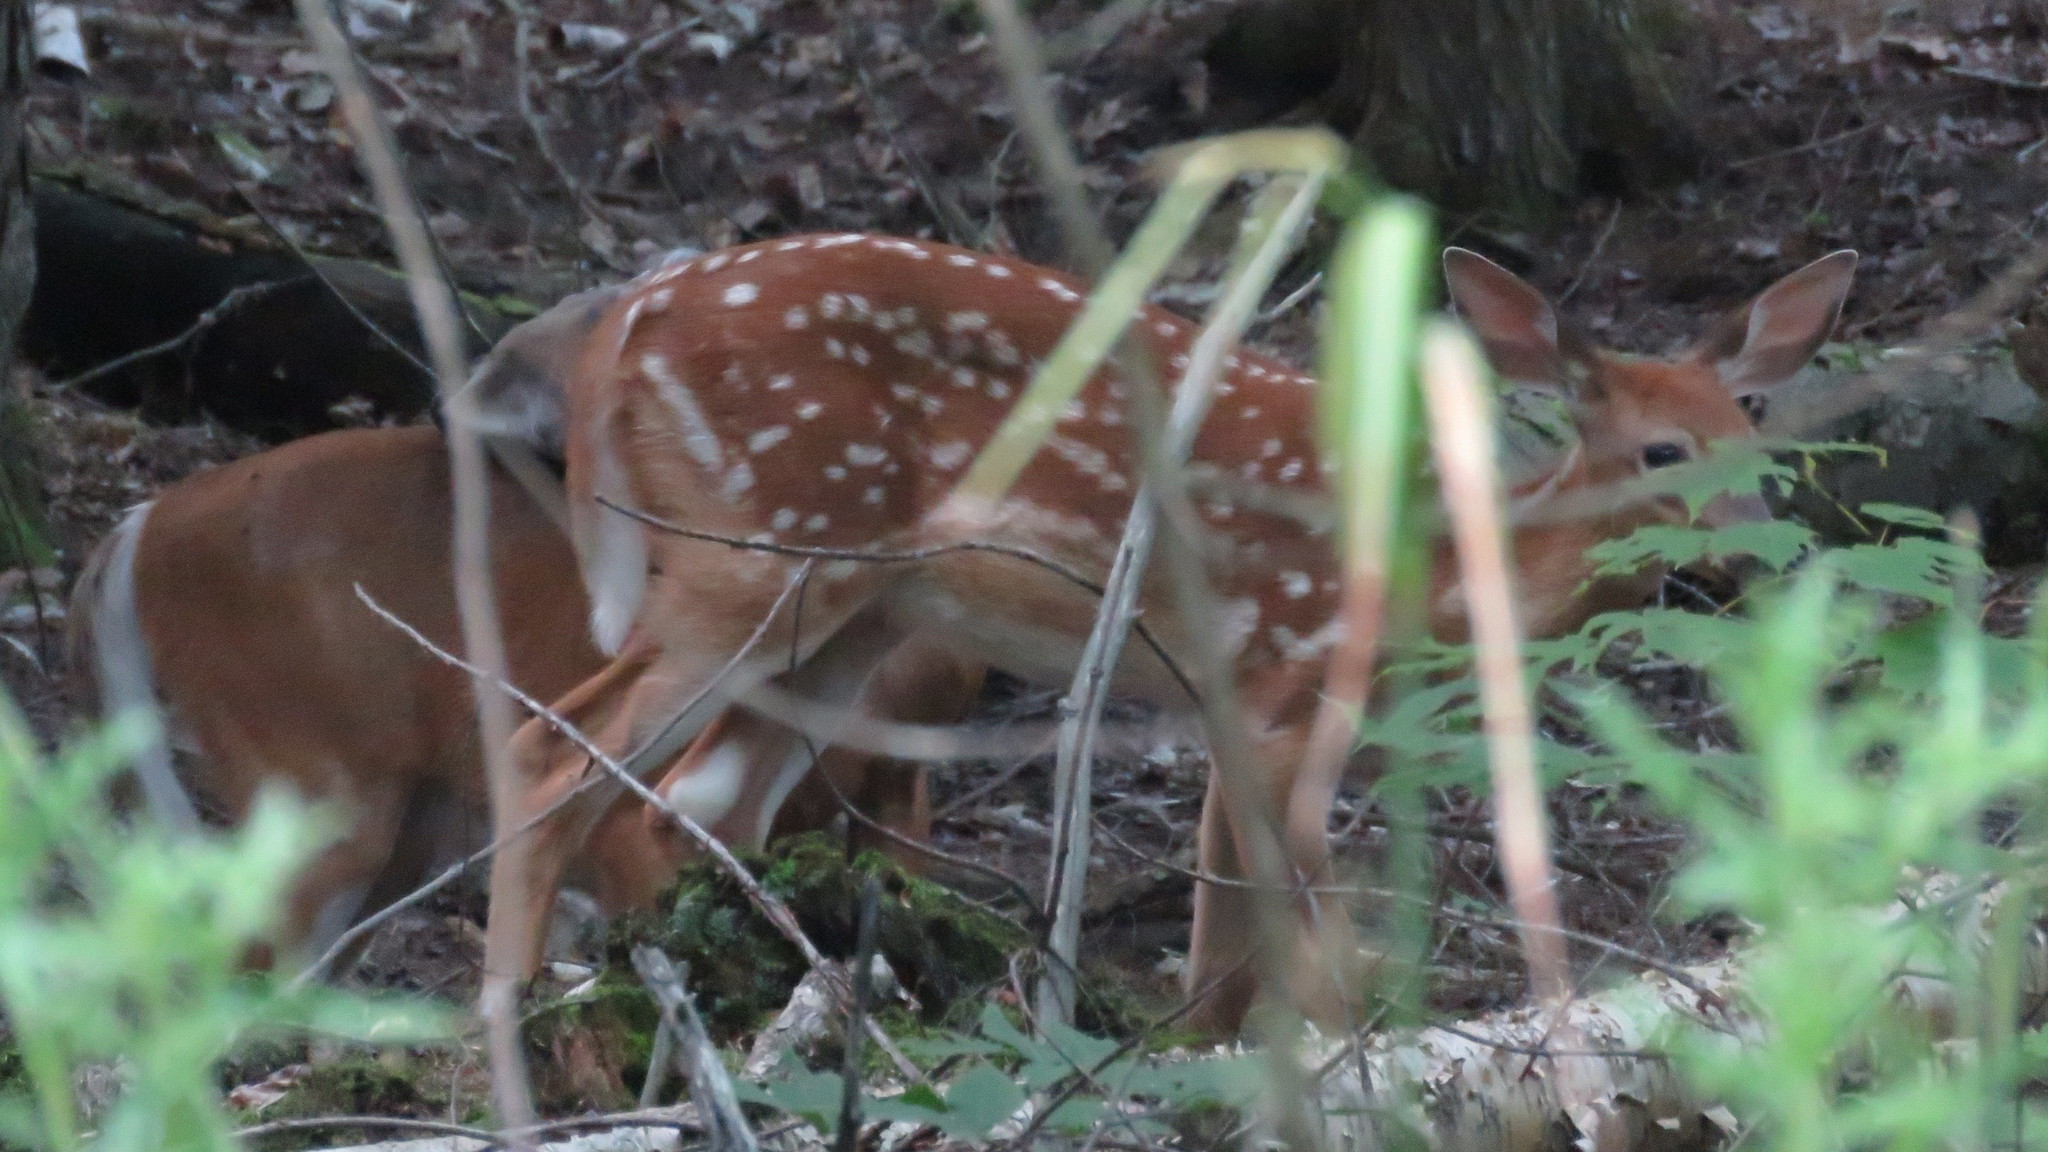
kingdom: Animalia
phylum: Chordata
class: Mammalia
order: Artiodactyla
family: Cervidae
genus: Odocoileus
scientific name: Odocoileus virginianus
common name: White-tailed deer
